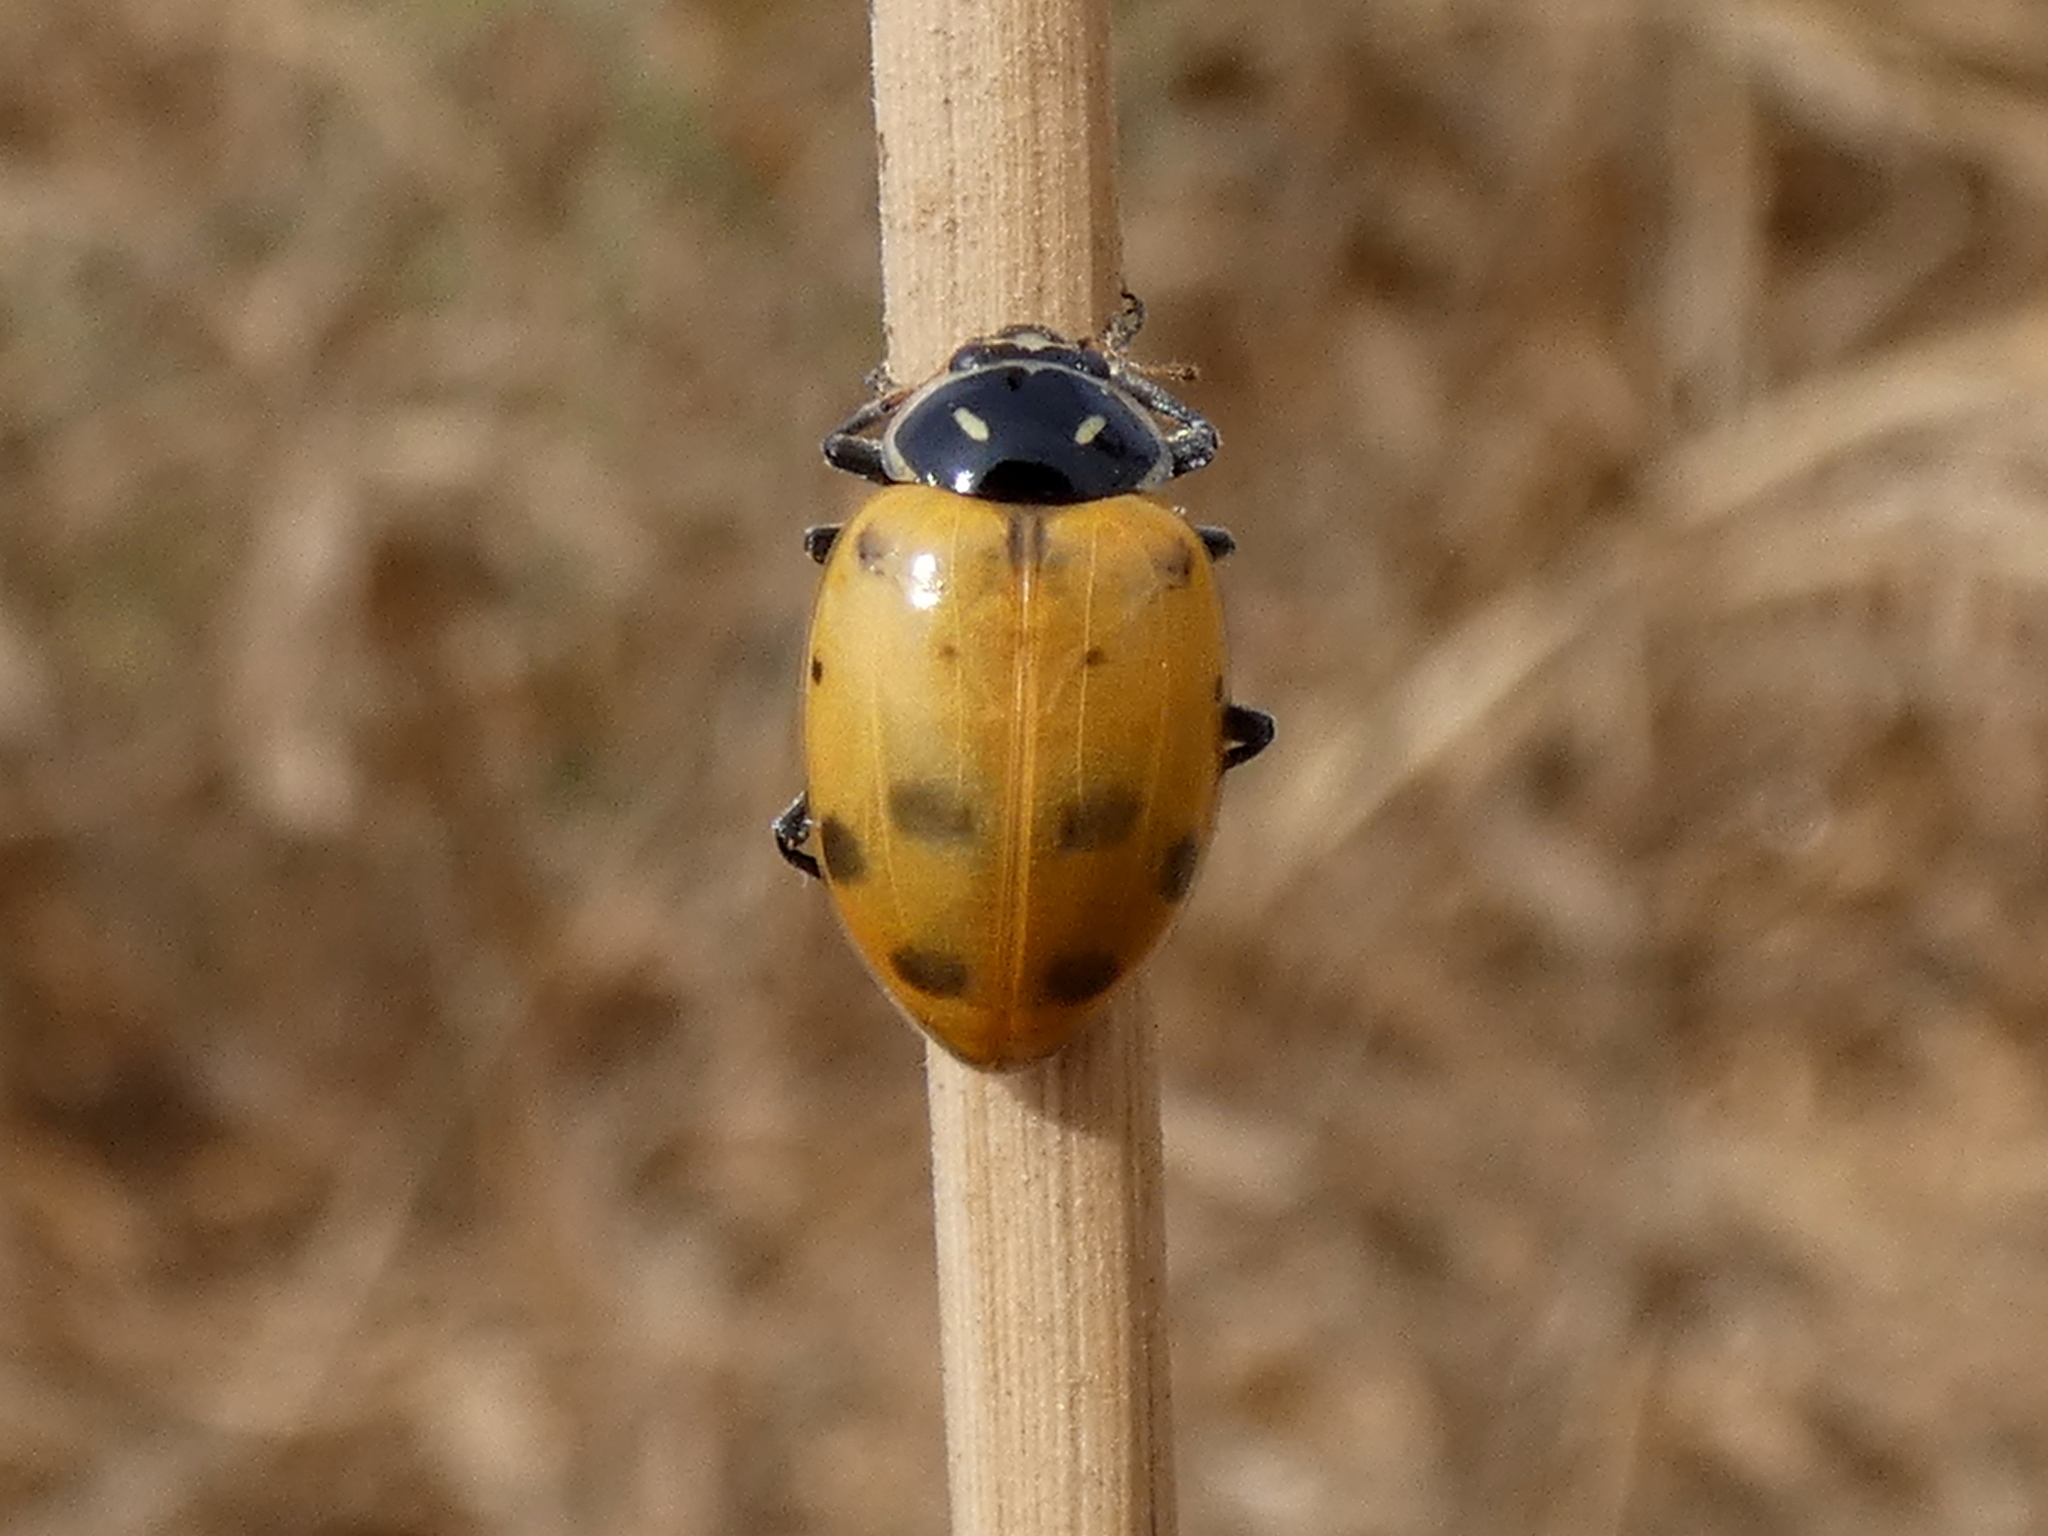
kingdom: Animalia
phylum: Arthropoda
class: Insecta
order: Coleoptera
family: Coccinellidae
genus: Hippodamia
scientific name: Hippodamia convergens
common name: Convergent lady beetle
